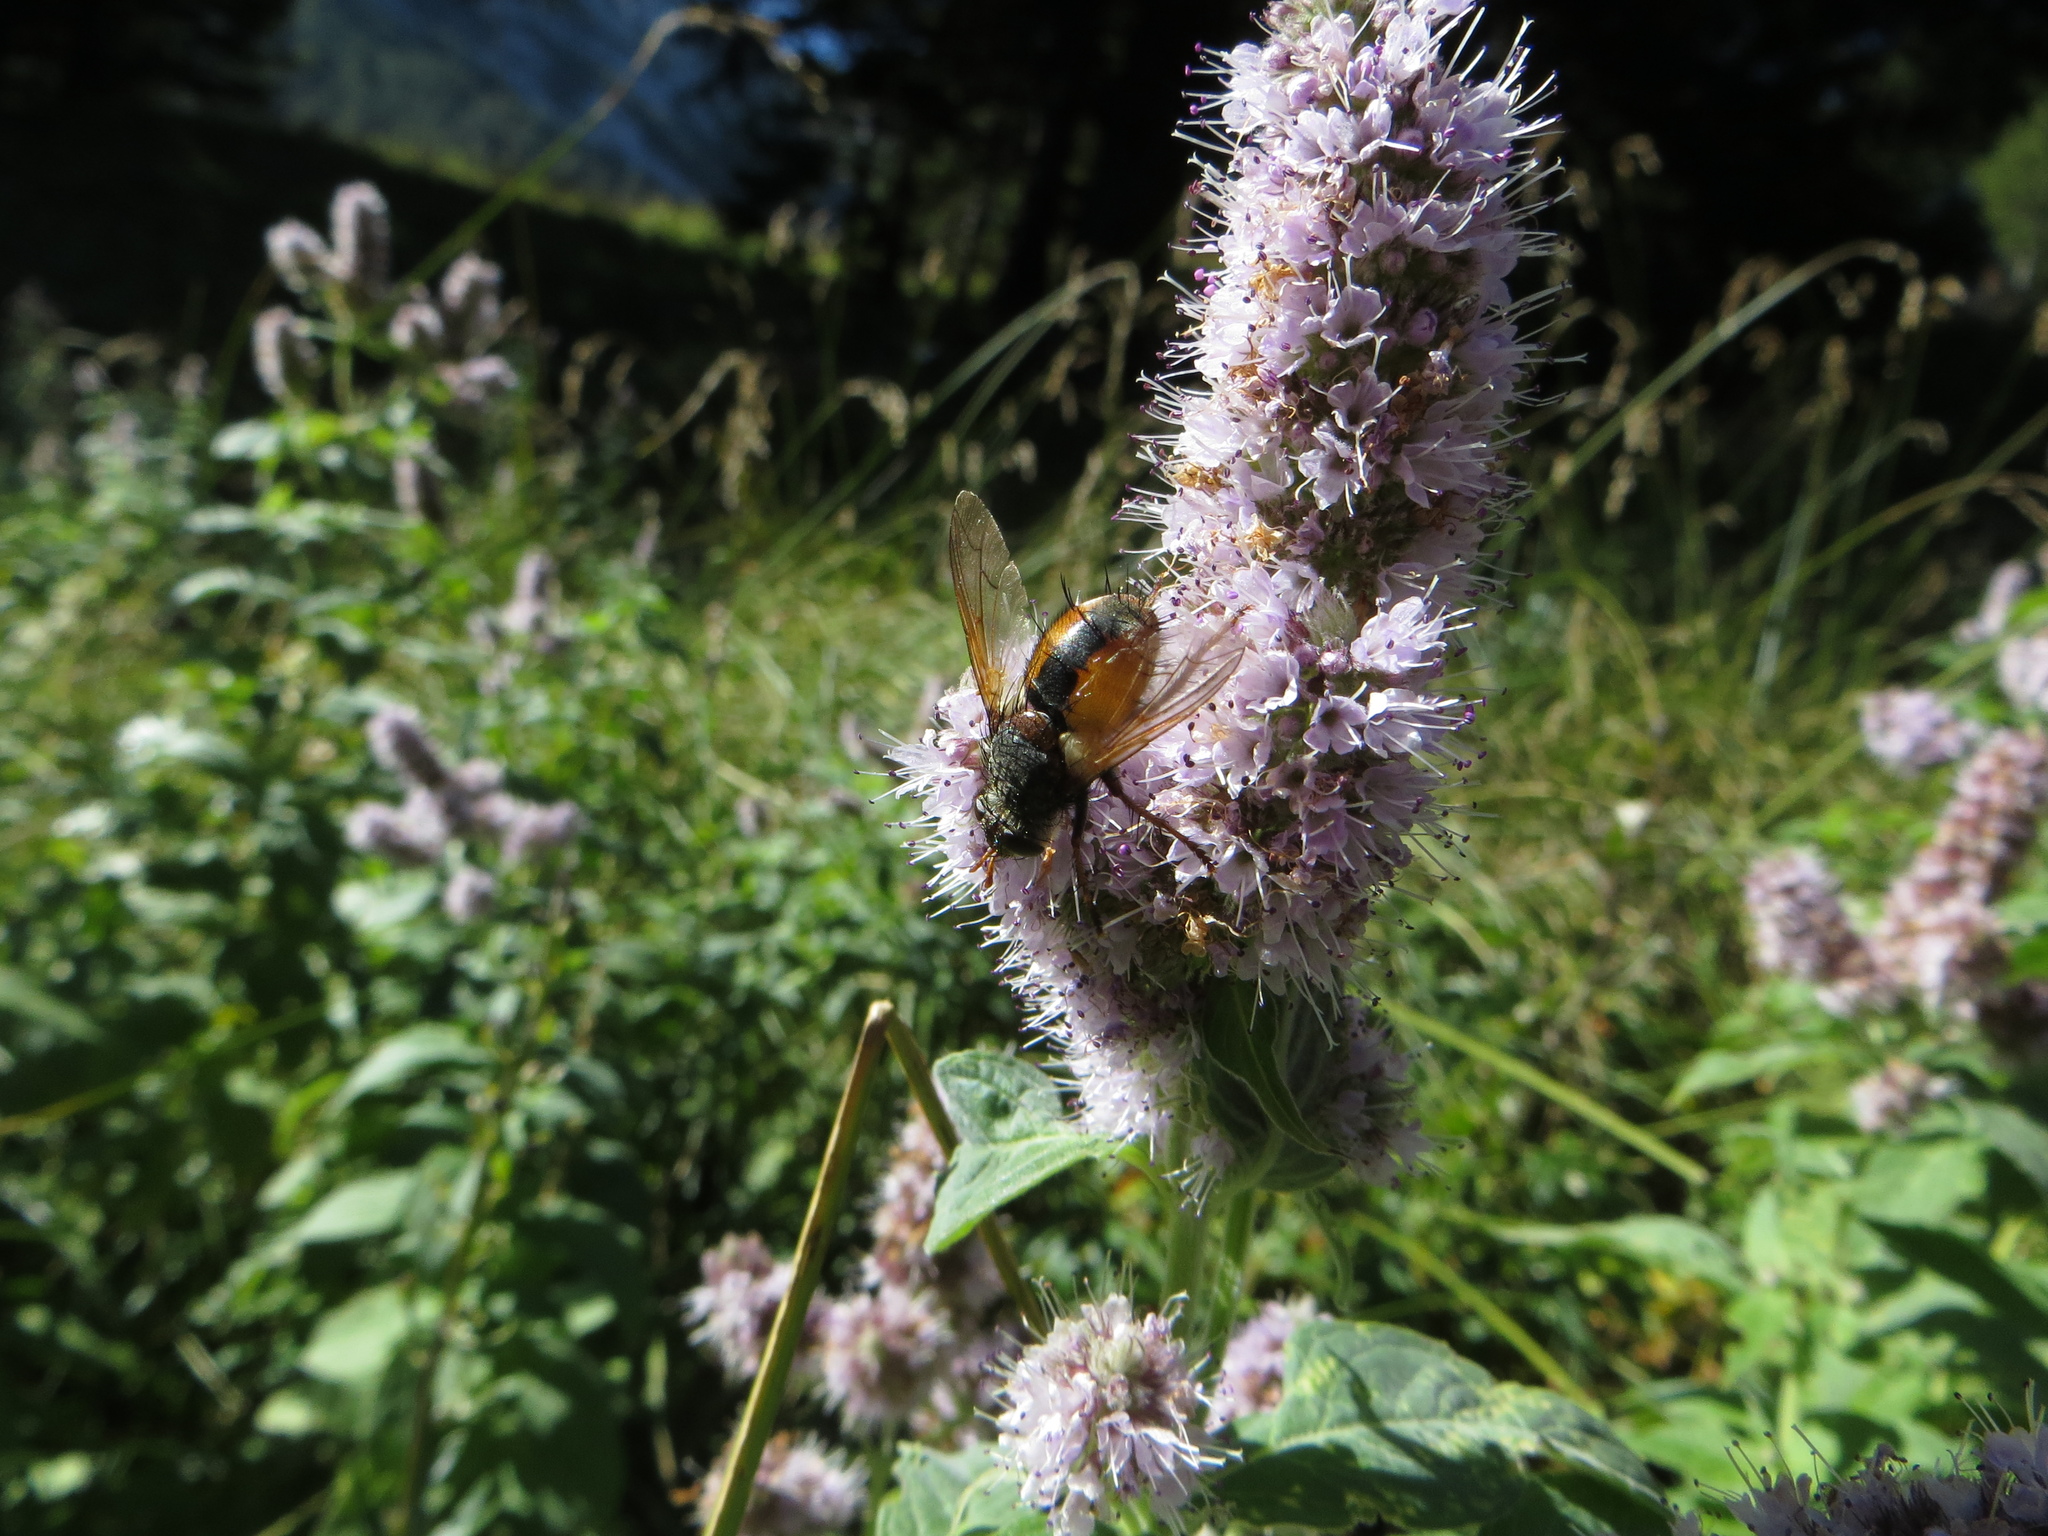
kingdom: Animalia
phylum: Arthropoda
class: Insecta
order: Diptera
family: Tachinidae
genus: Tachina
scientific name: Tachina fera
